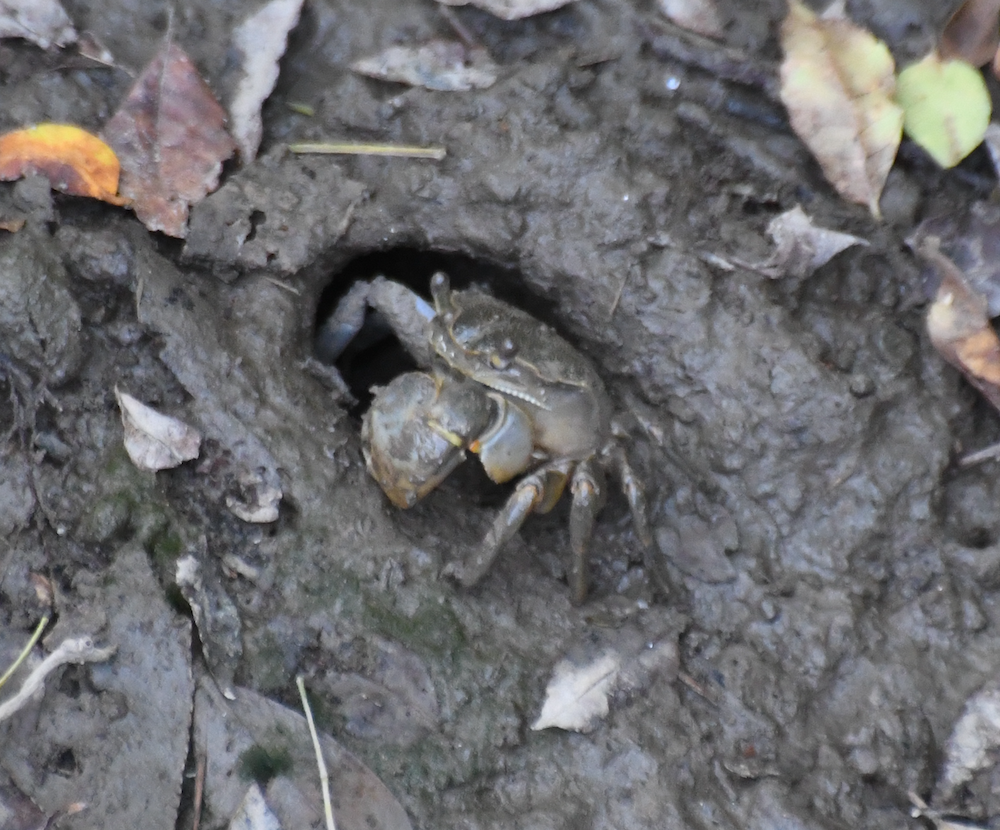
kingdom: Animalia
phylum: Arthropoda
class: Malacostraca
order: Decapoda
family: Varunidae
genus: Helice
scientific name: Helice formosensis
